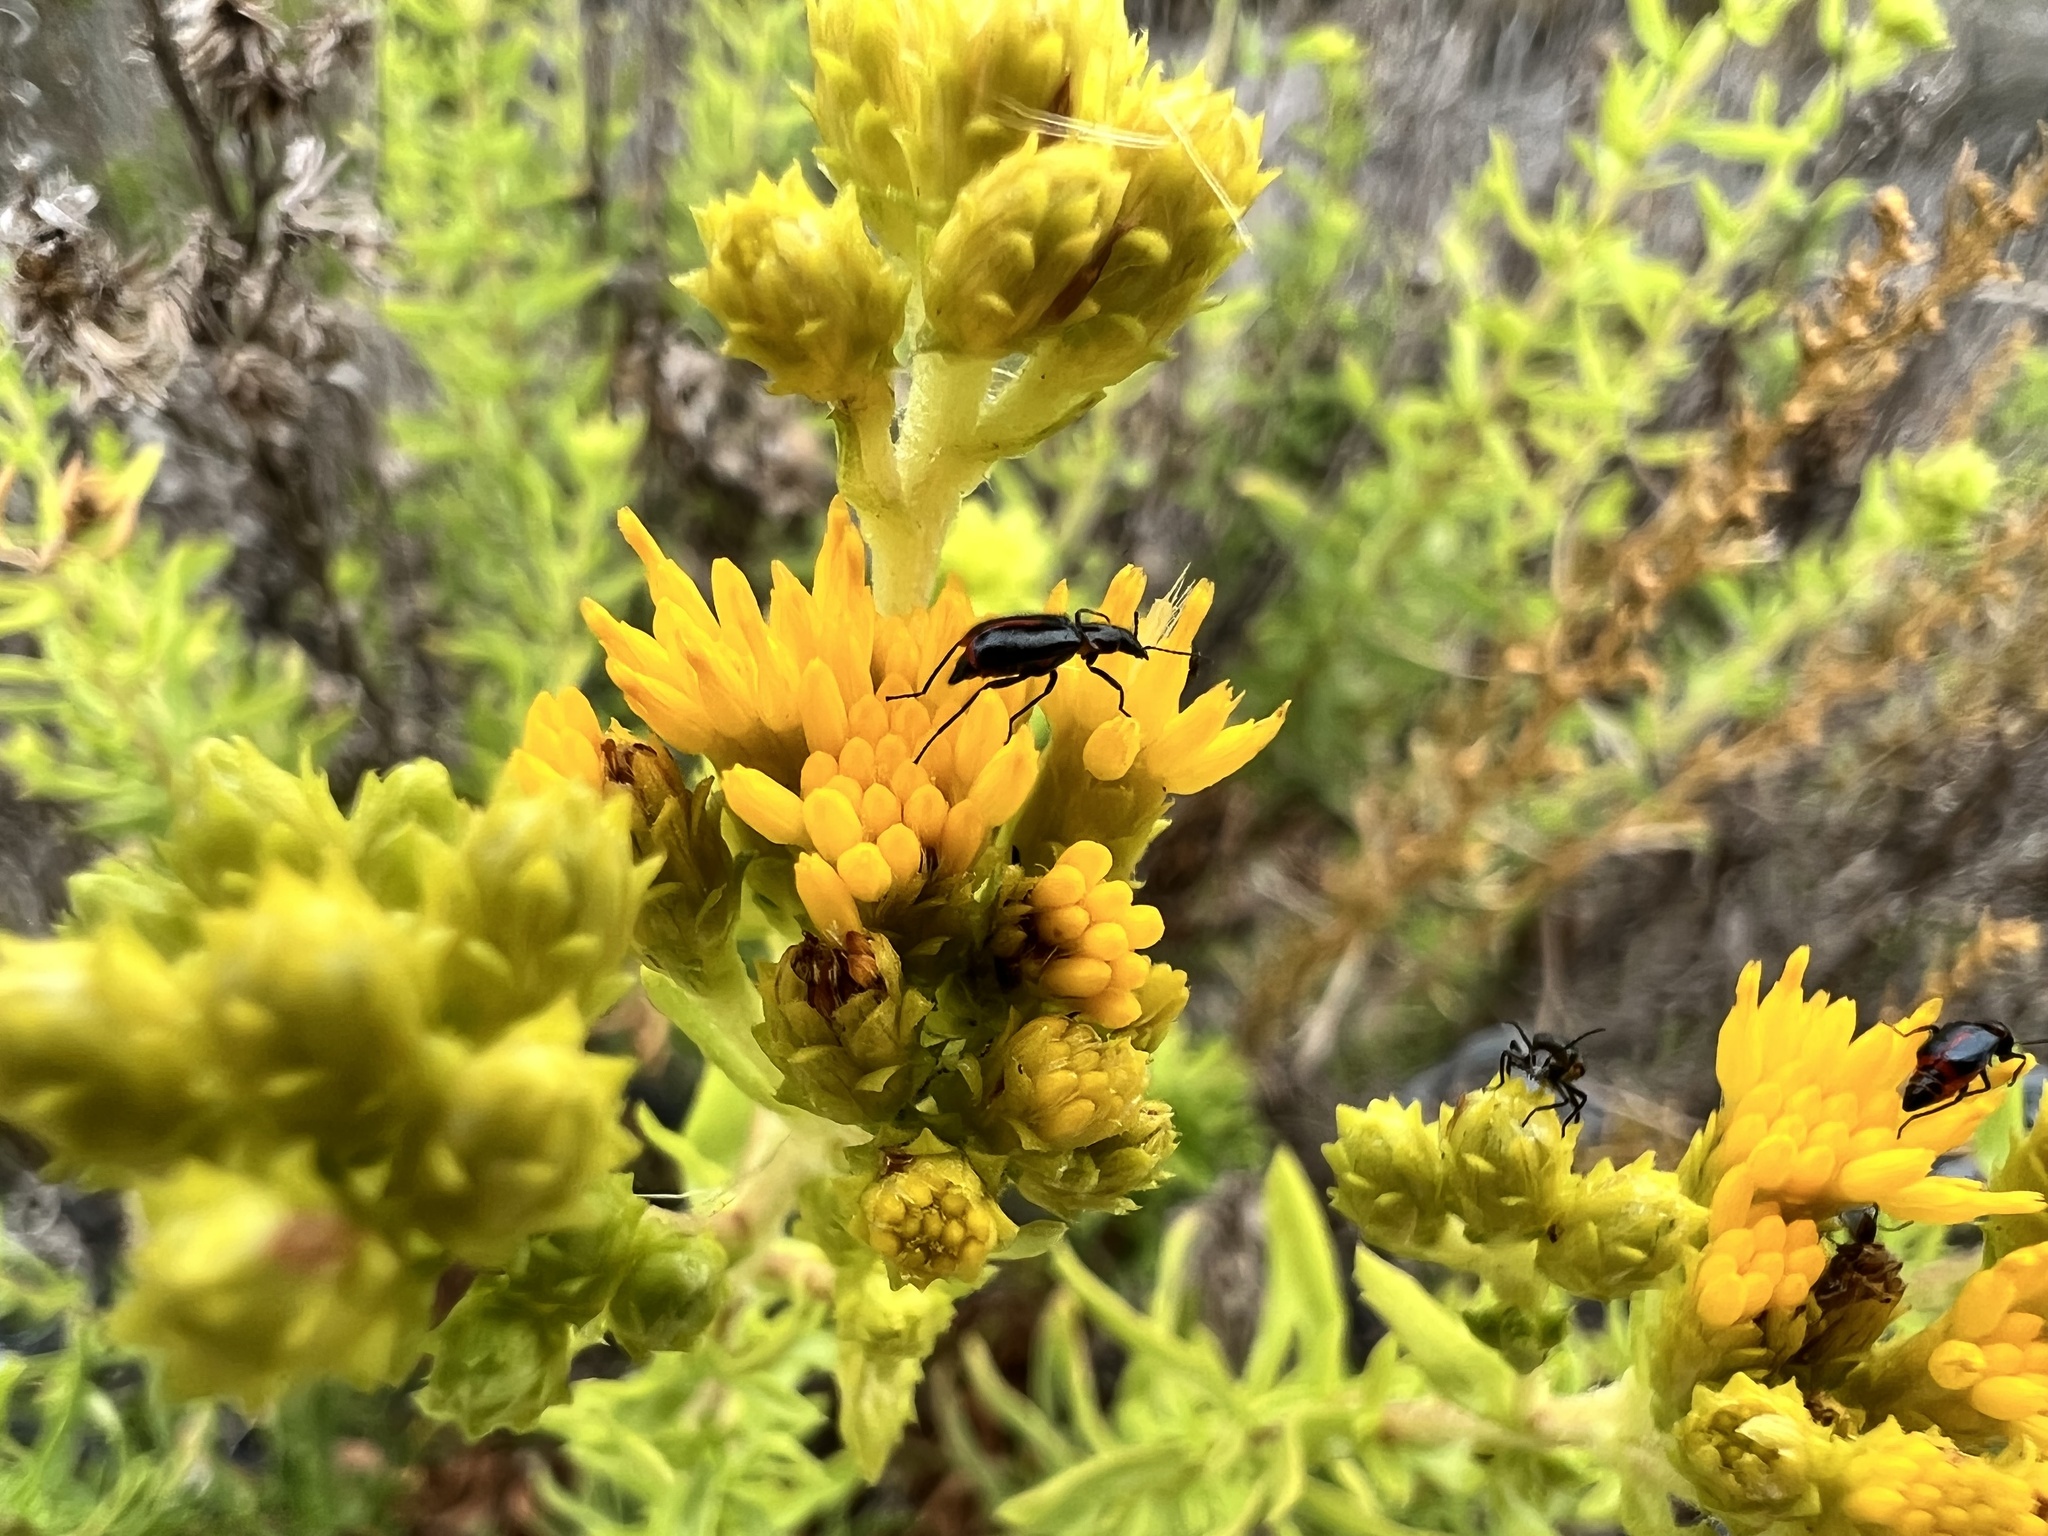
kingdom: Plantae
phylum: Tracheophyta
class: Magnoliopsida
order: Asterales
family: Asteraceae
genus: Isocoma
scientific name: Isocoma menziesii
